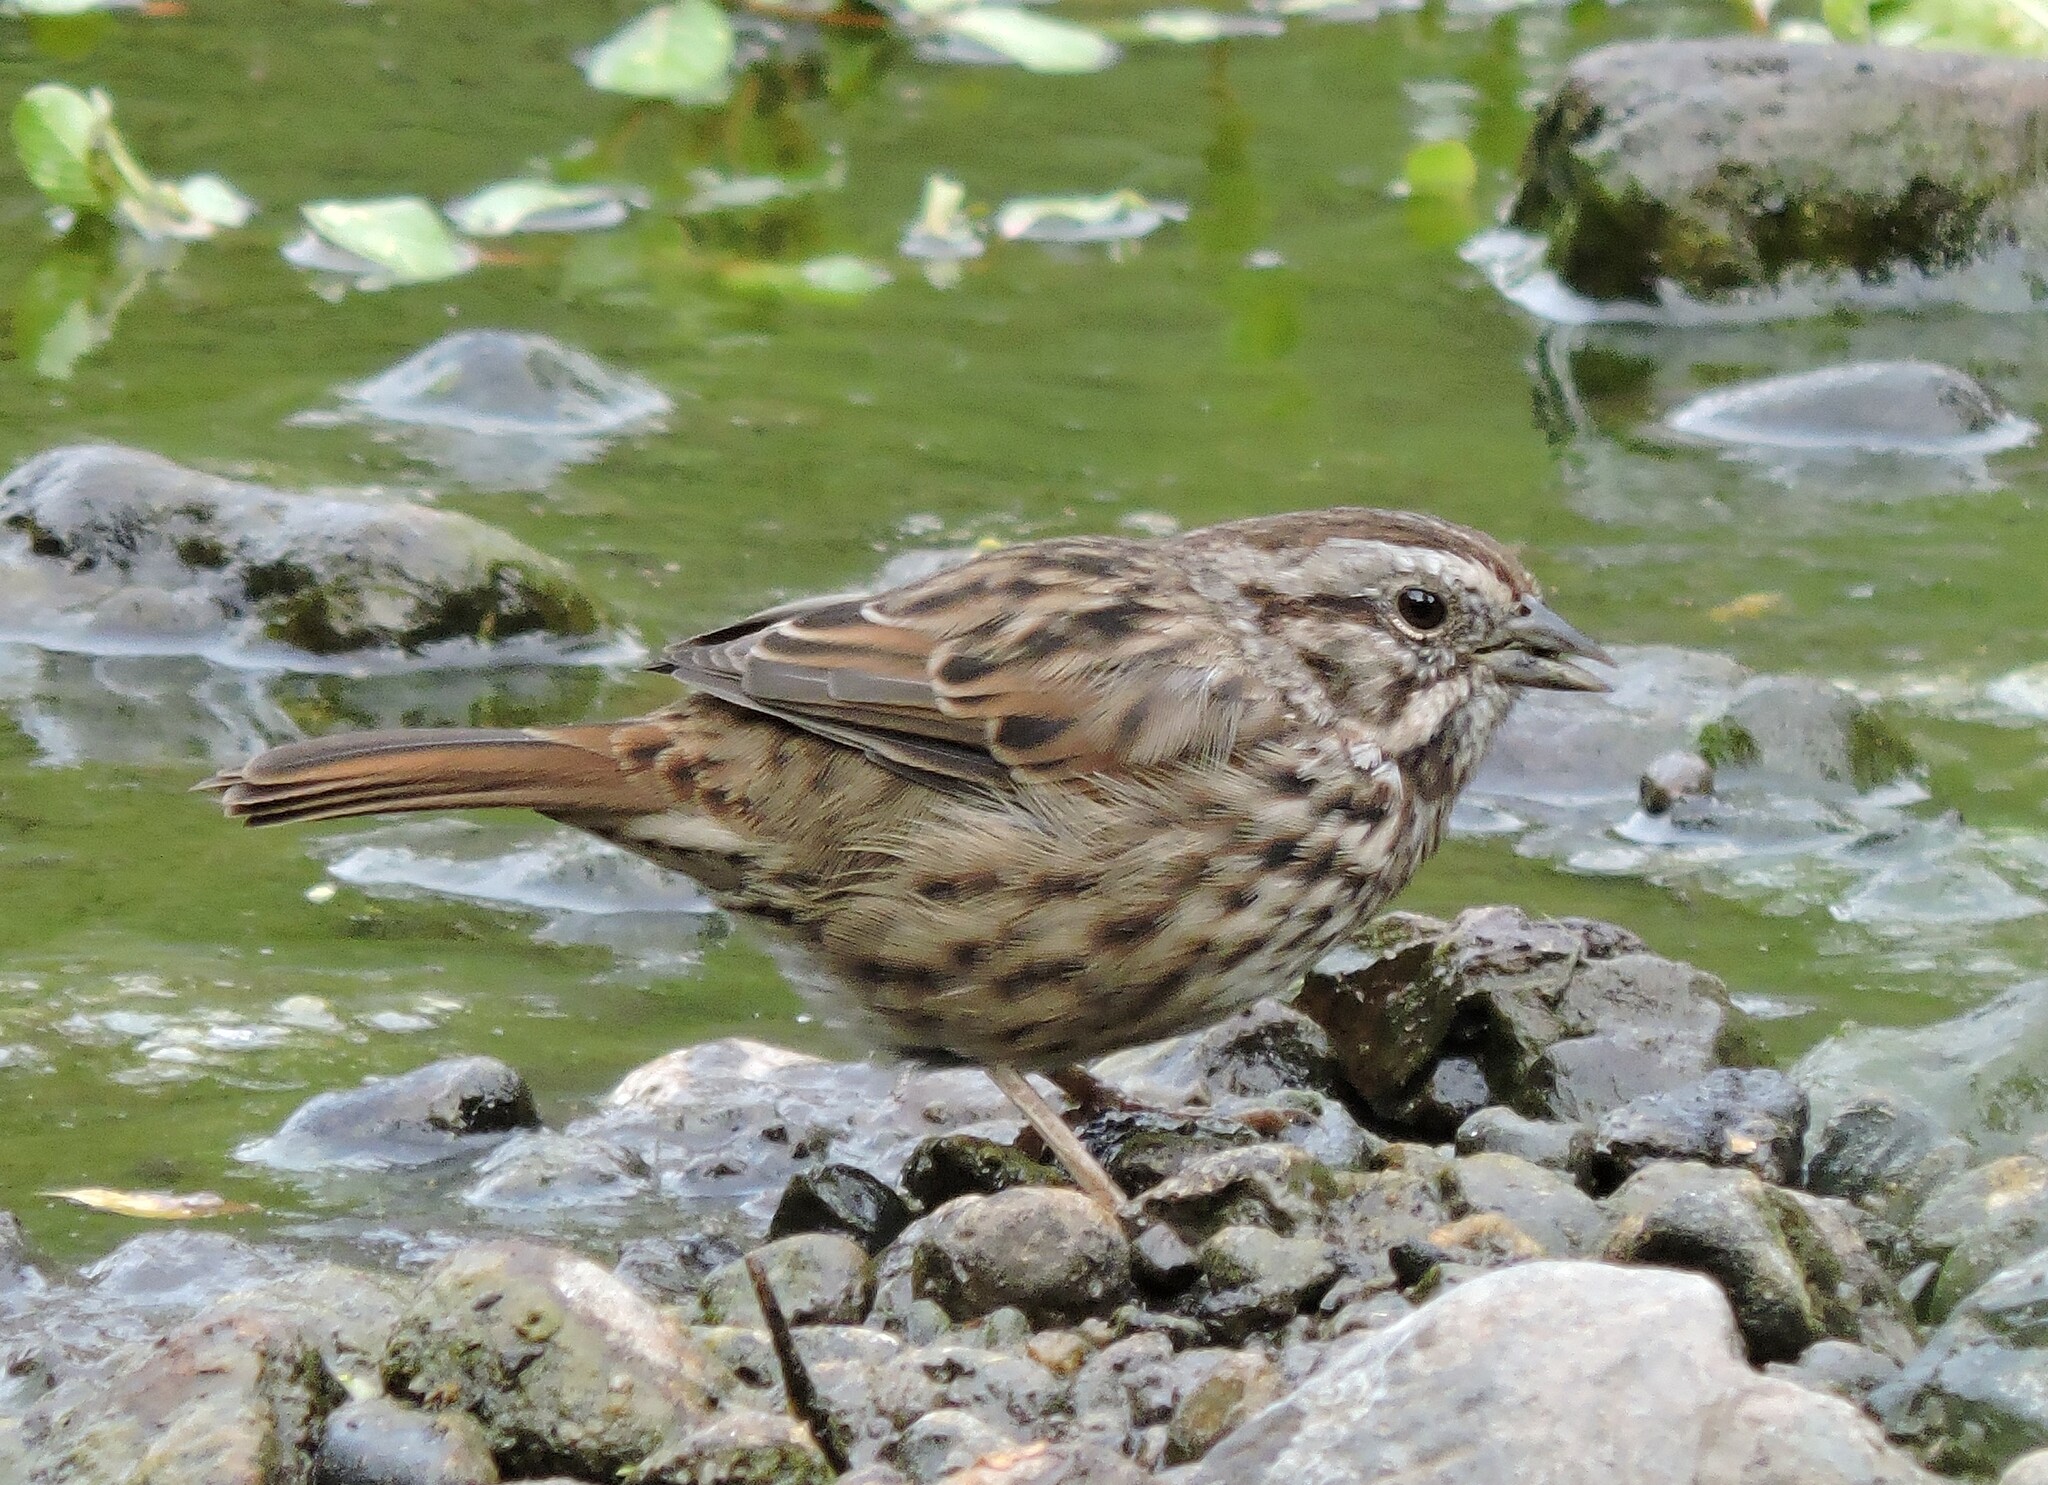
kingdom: Animalia
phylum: Chordata
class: Aves
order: Passeriformes
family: Passerellidae
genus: Melospiza
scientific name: Melospiza melodia
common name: Song sparrow
